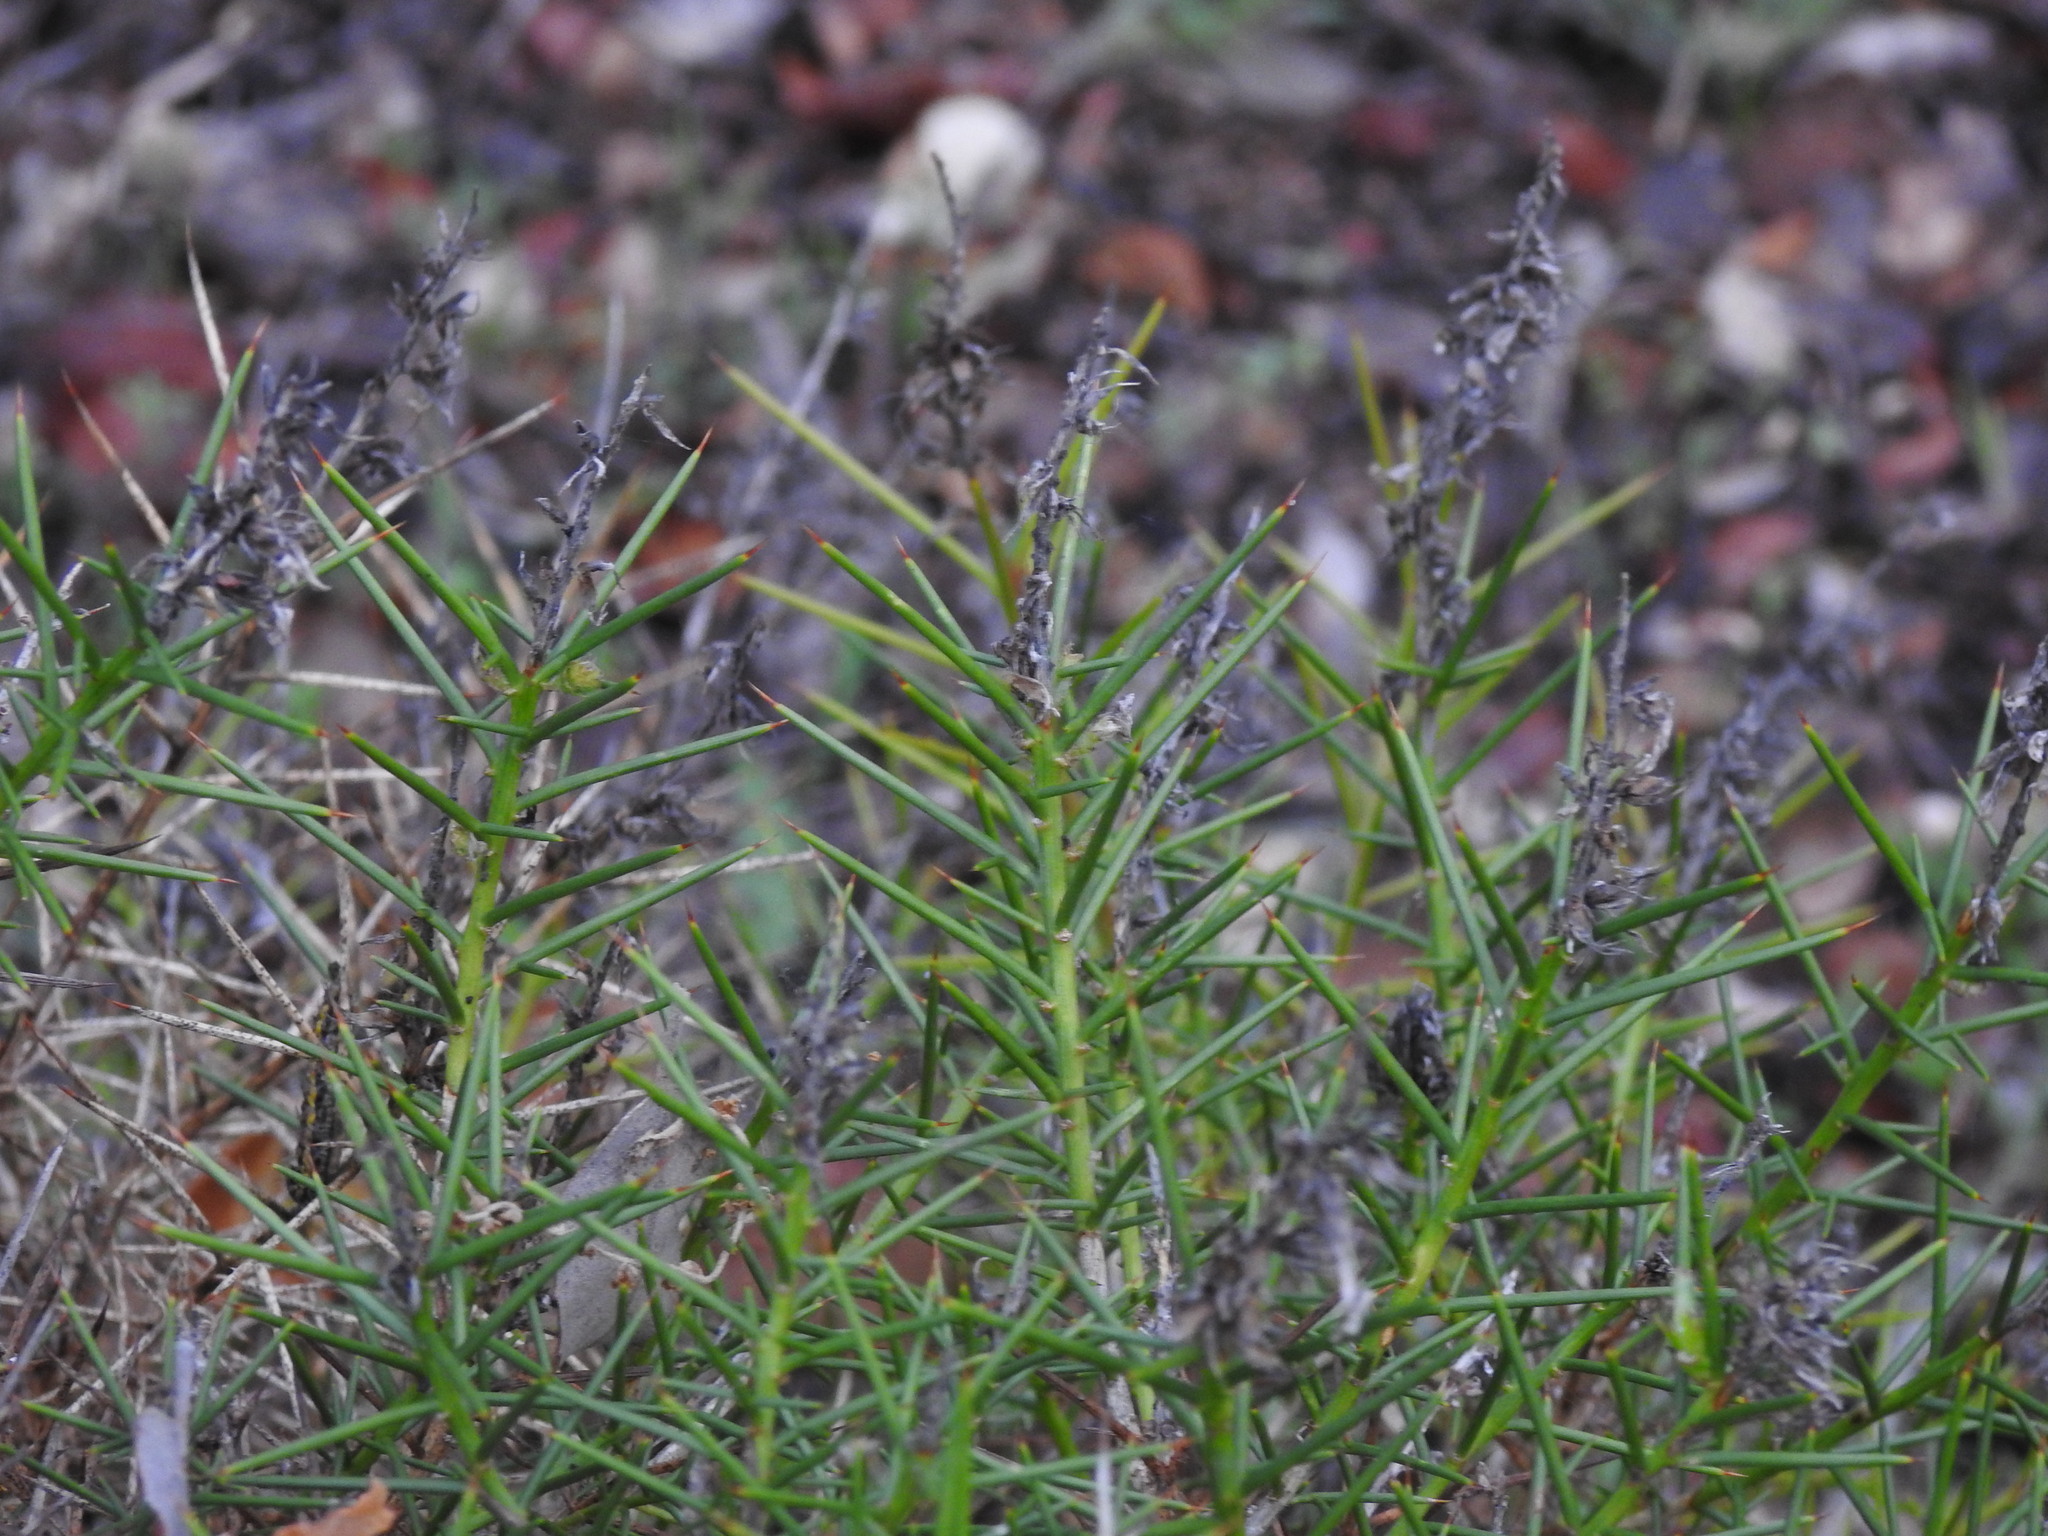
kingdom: Plantae
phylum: Tracheophyta
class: Magnoliopsida
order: Fabales
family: Fabaceae
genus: Genista
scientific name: Genista hirsuta
